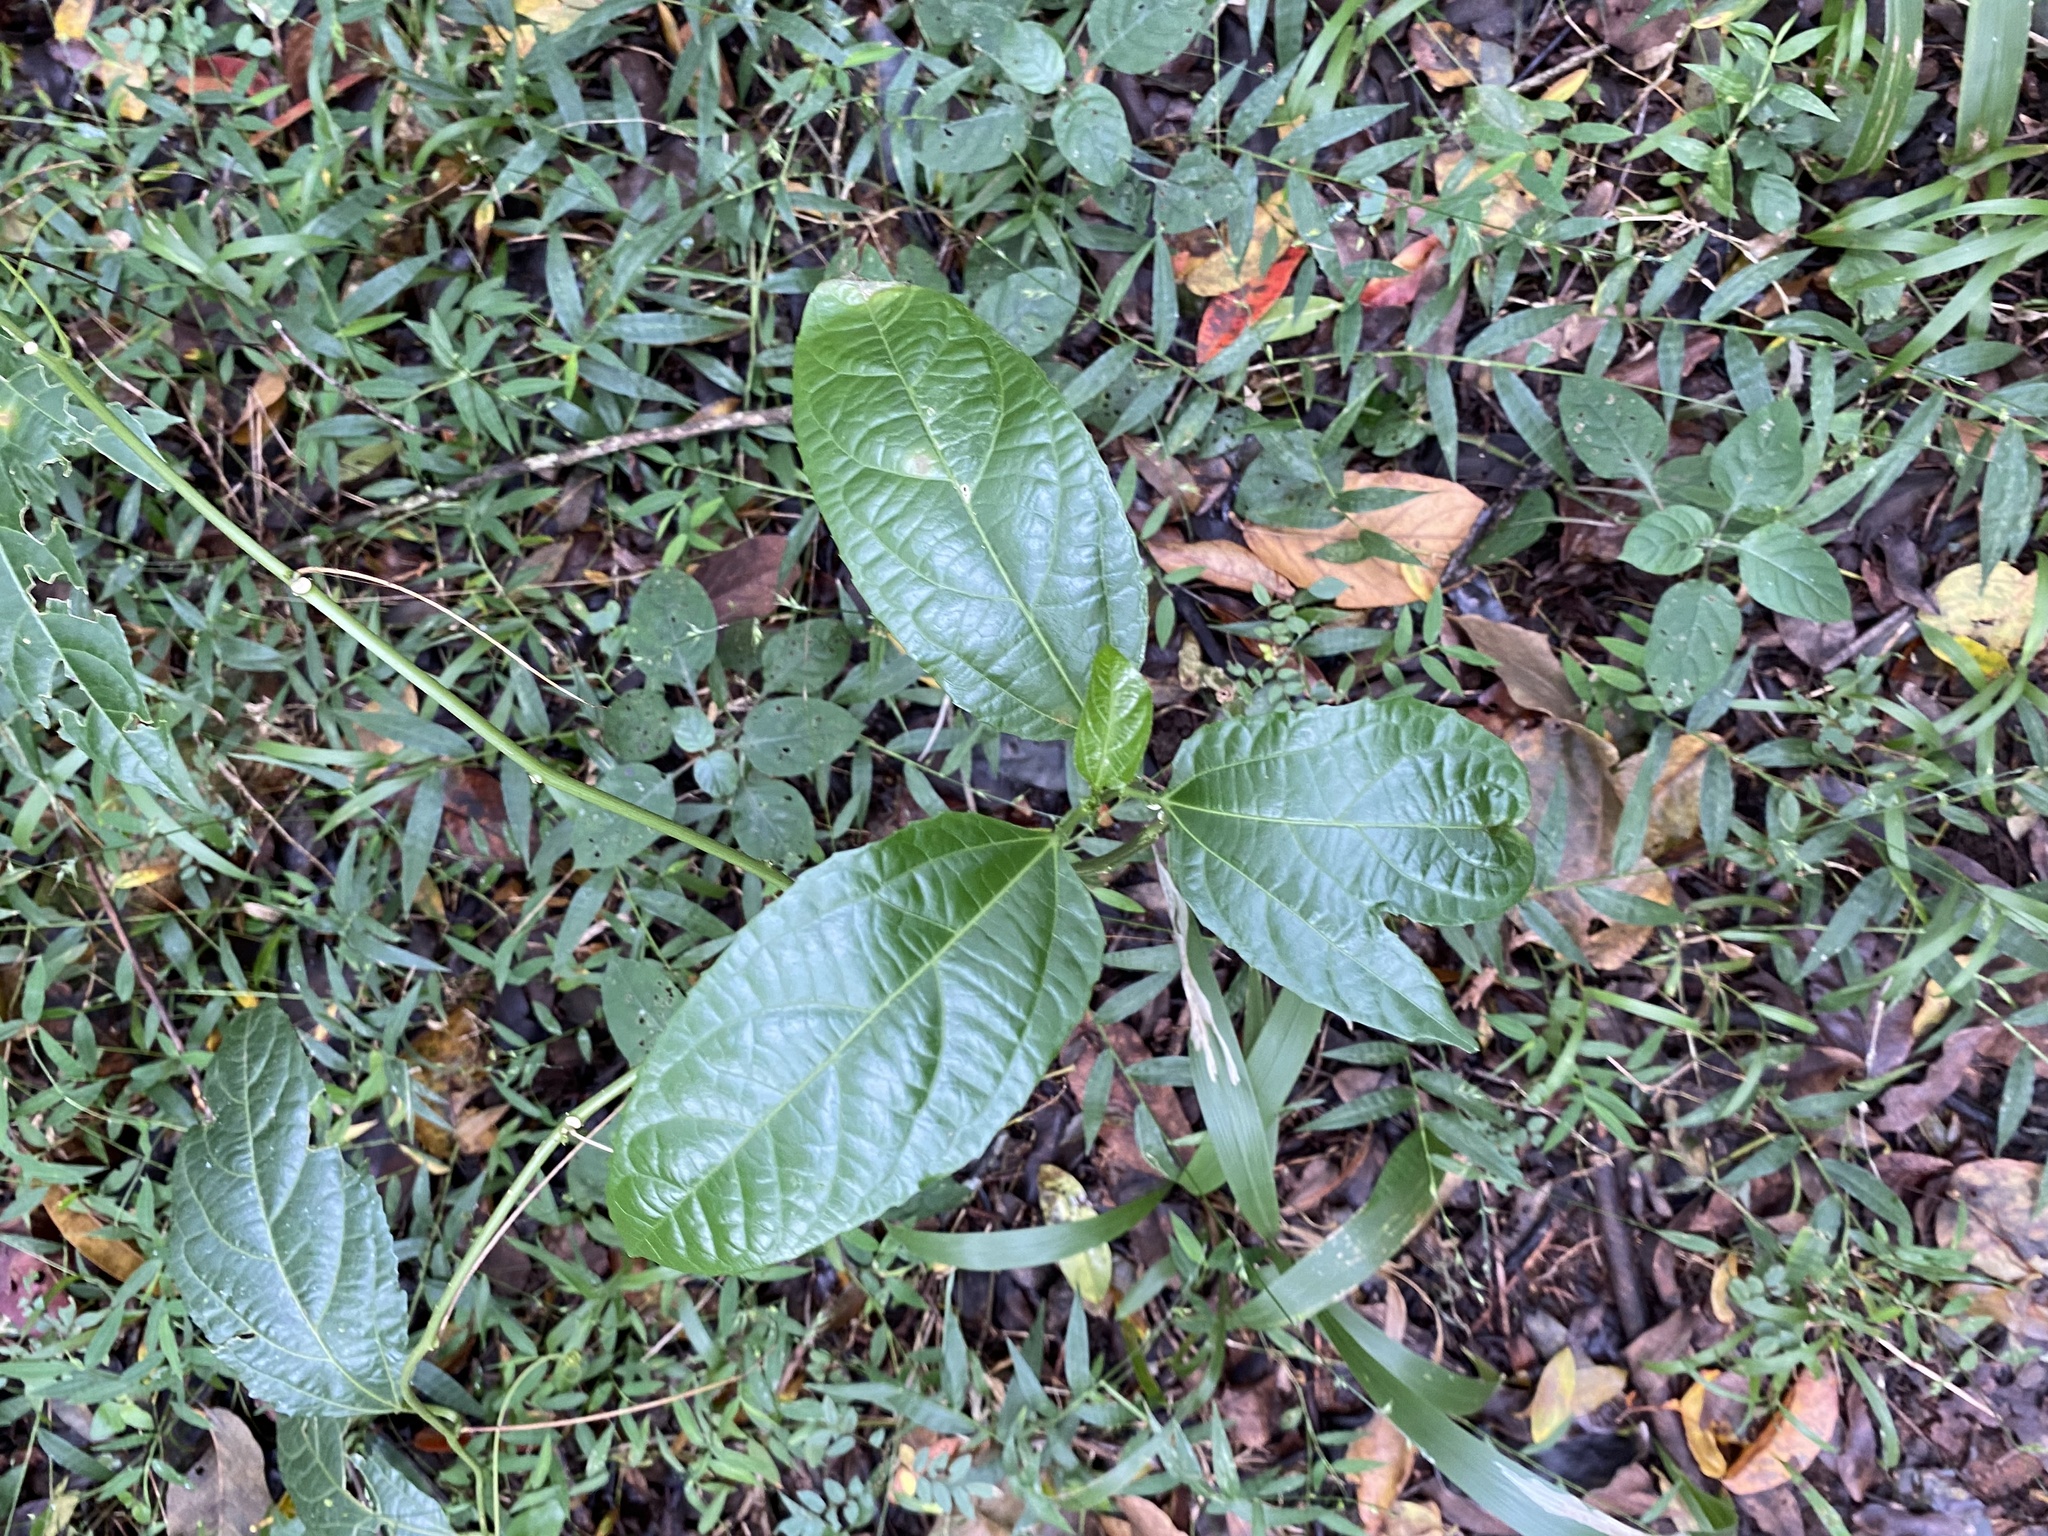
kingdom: Plantae
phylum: Tracheophyta
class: Magnoliopsida
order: Malpighiales
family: Passifloraceae
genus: Passiflora
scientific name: Passiflora edulis
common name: Purple granadilla
